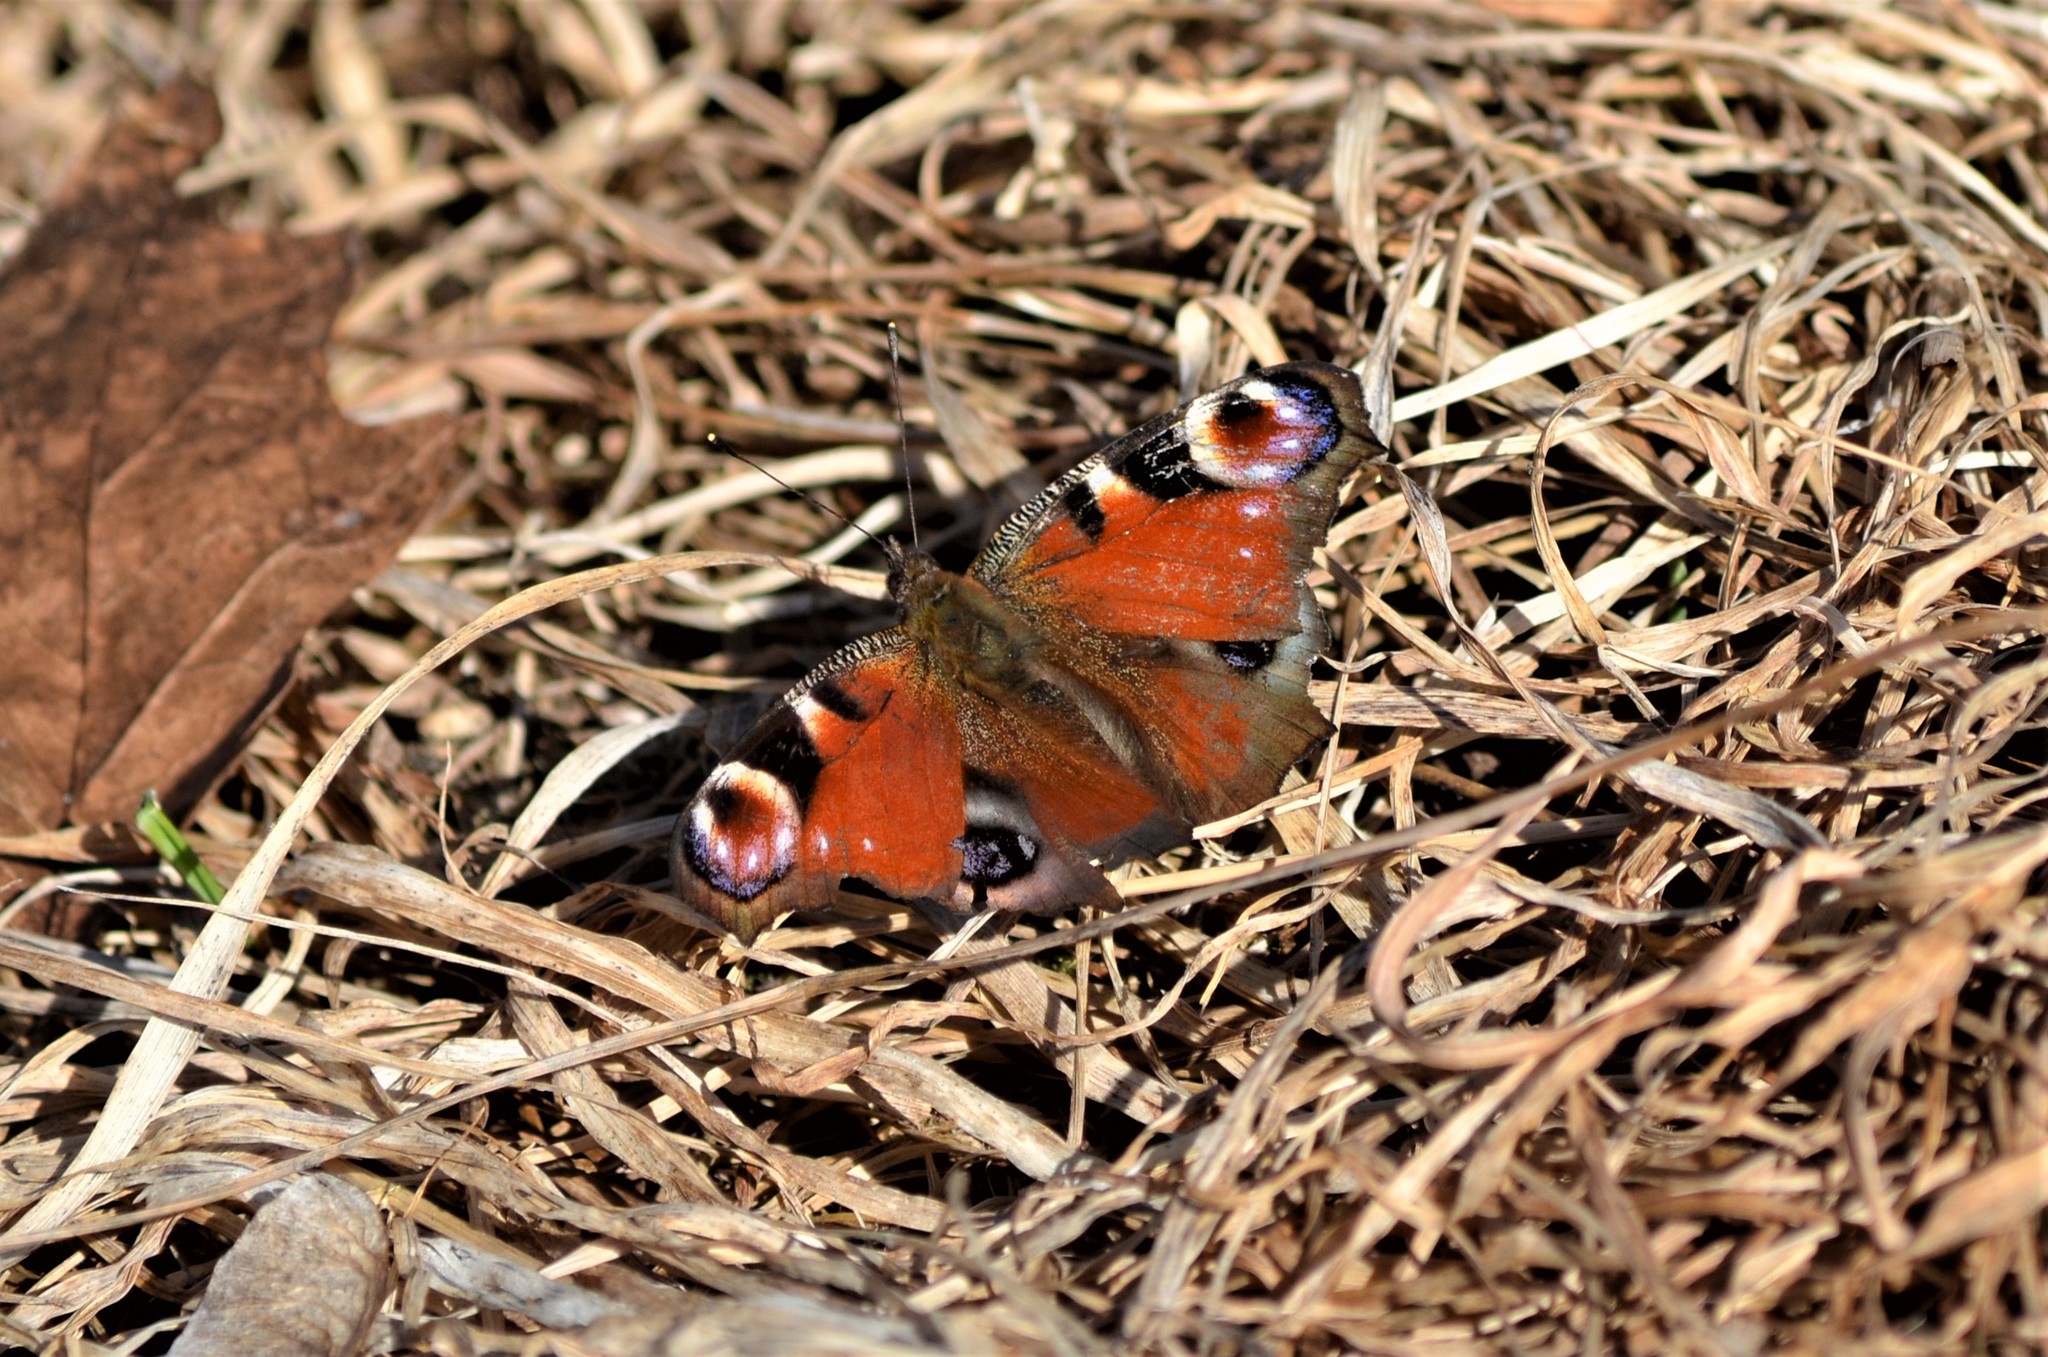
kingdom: Animalia
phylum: Arthropoda
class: Insecta
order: Lepidoptera
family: Nymphalidae
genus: Aglais
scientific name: Aglais io
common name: Peacock
